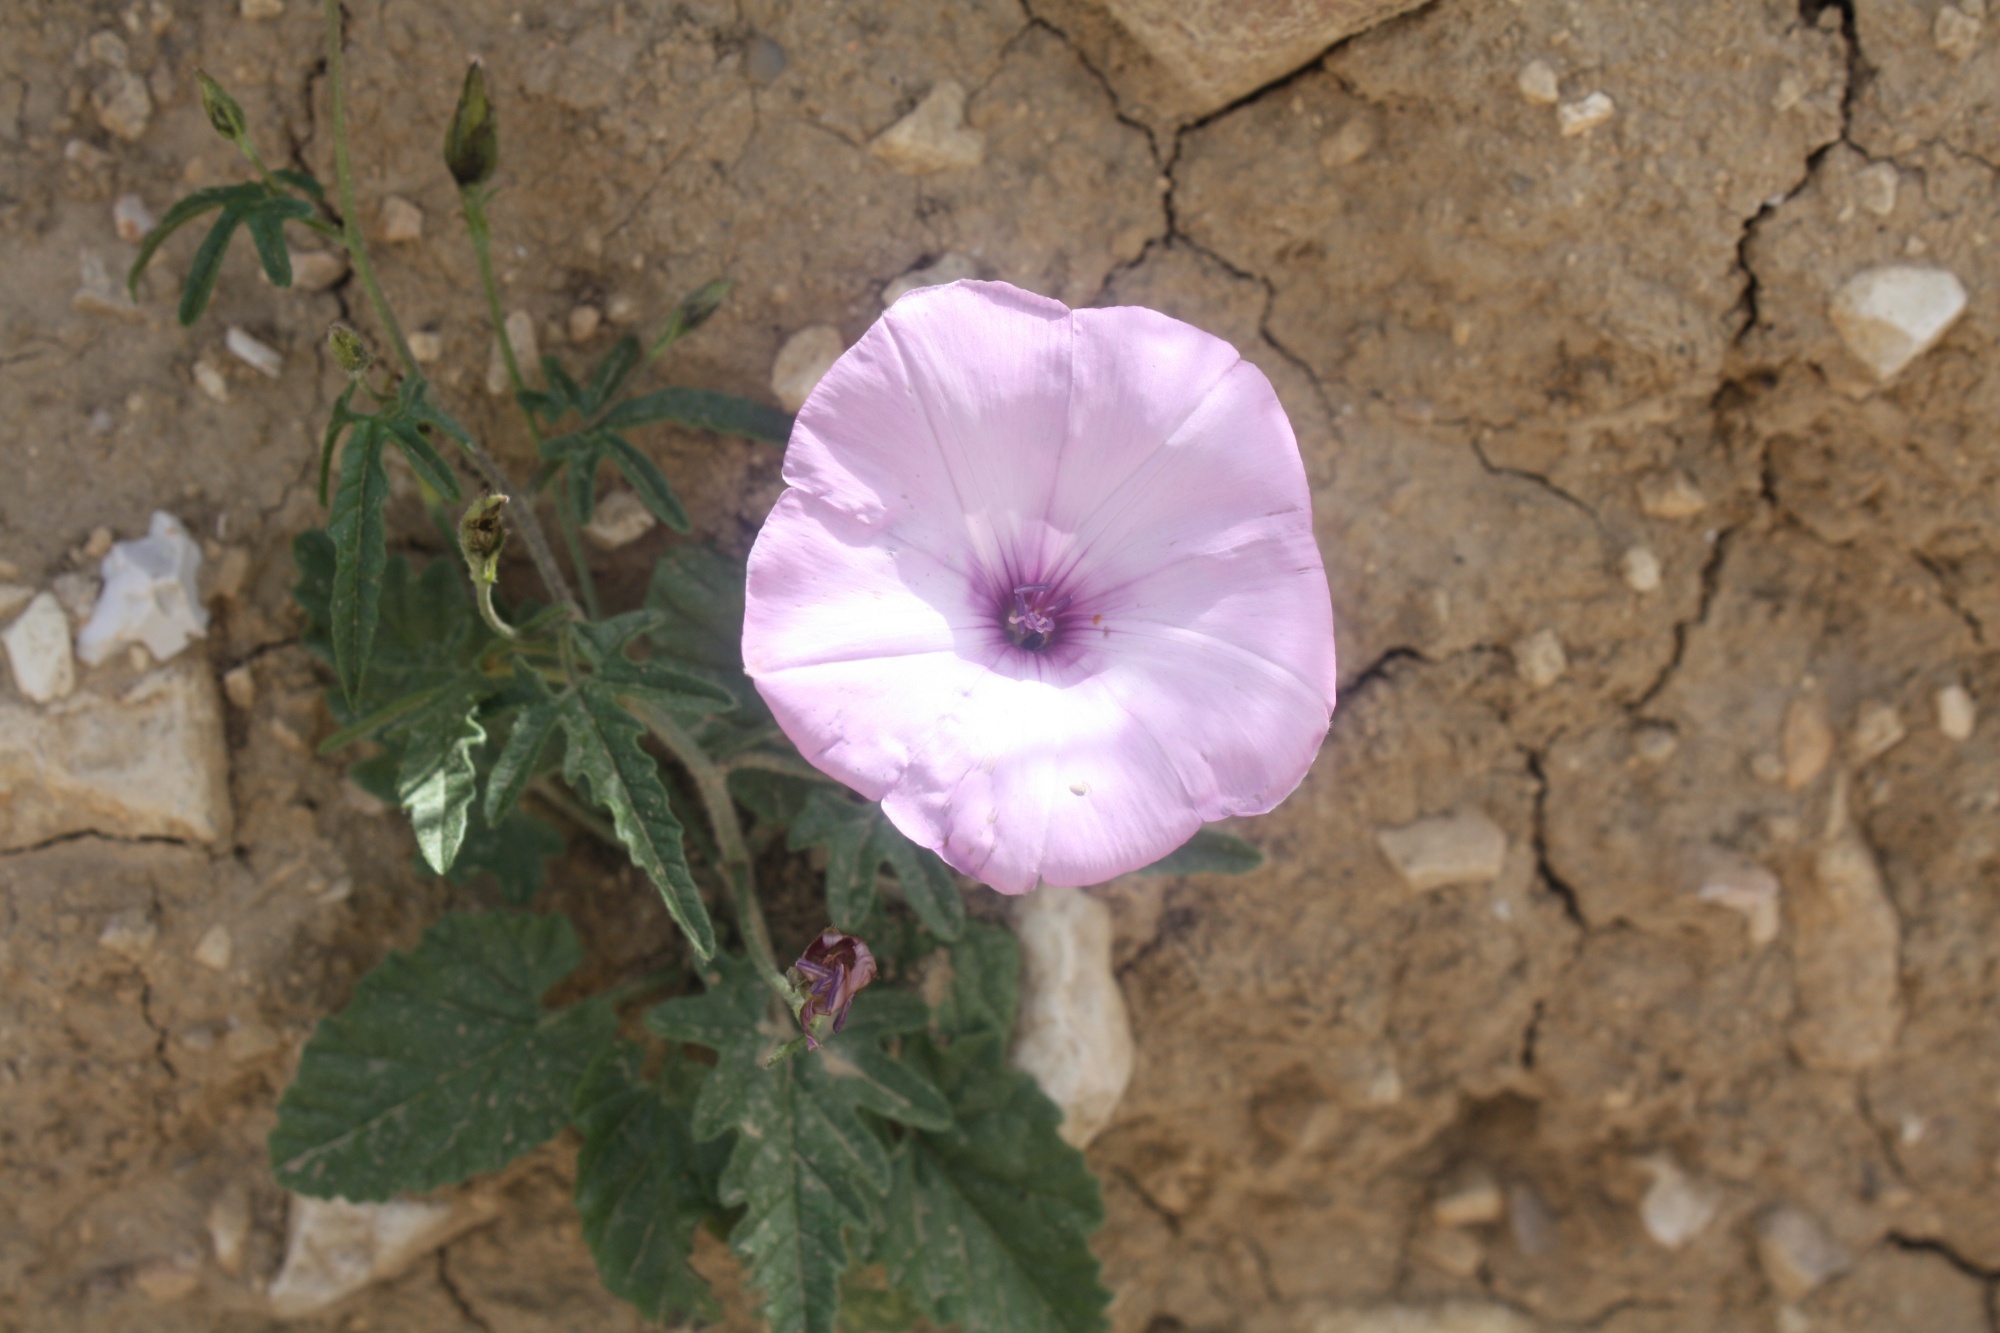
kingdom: Plantae
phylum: Tracheophyta
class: Magnoliopsida
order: Solanales
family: Convolvulaceae
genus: Convolvulus
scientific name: Convolvulus althaeoides
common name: Mallow bindweed
